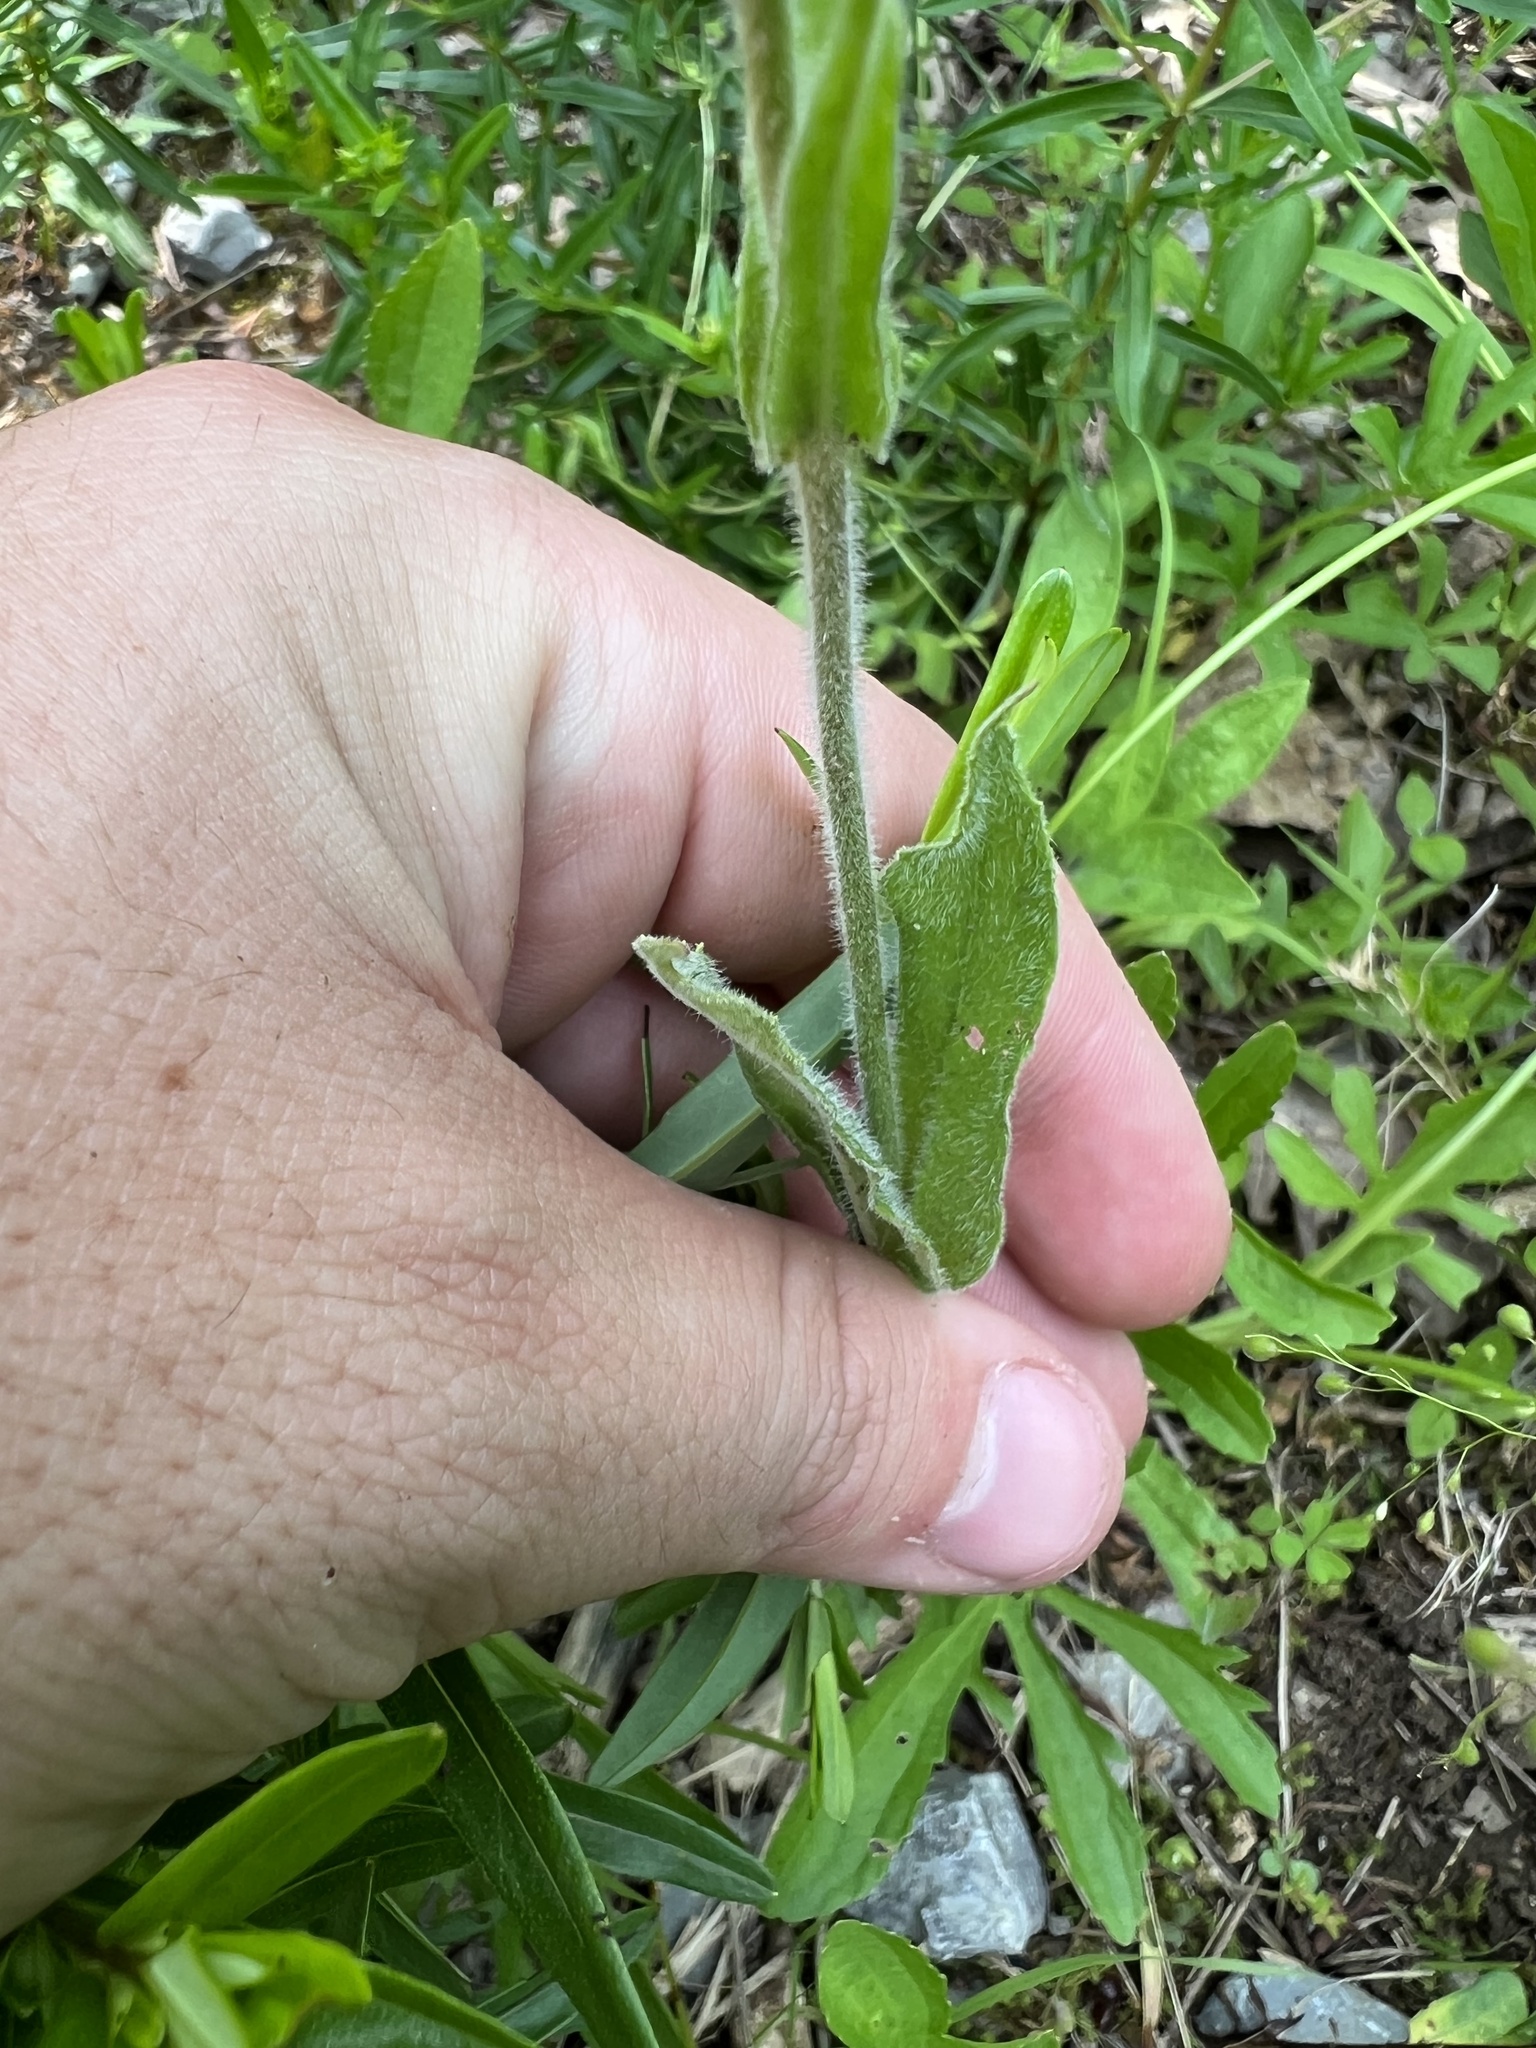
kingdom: Plantae
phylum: Tracheophyta
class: Magnoliopsida
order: Lamiales
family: Plantaginaceae
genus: Penstemon
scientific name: Penstemon tenuiflorus
